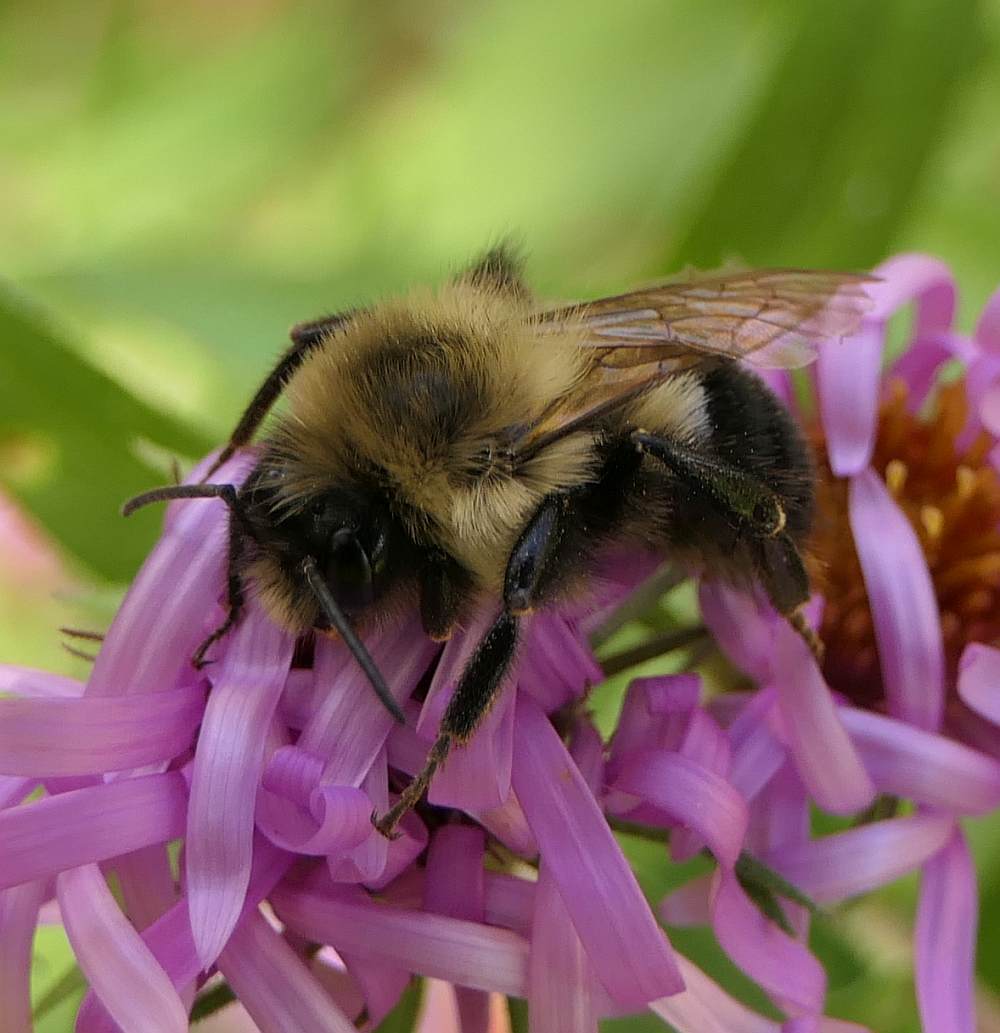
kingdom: Animalia
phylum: Arthropoda
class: Insecta
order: Hymenoptera
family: Apidae
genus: Bombus
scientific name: Bombus impatiens
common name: Common eastern bumble bee
